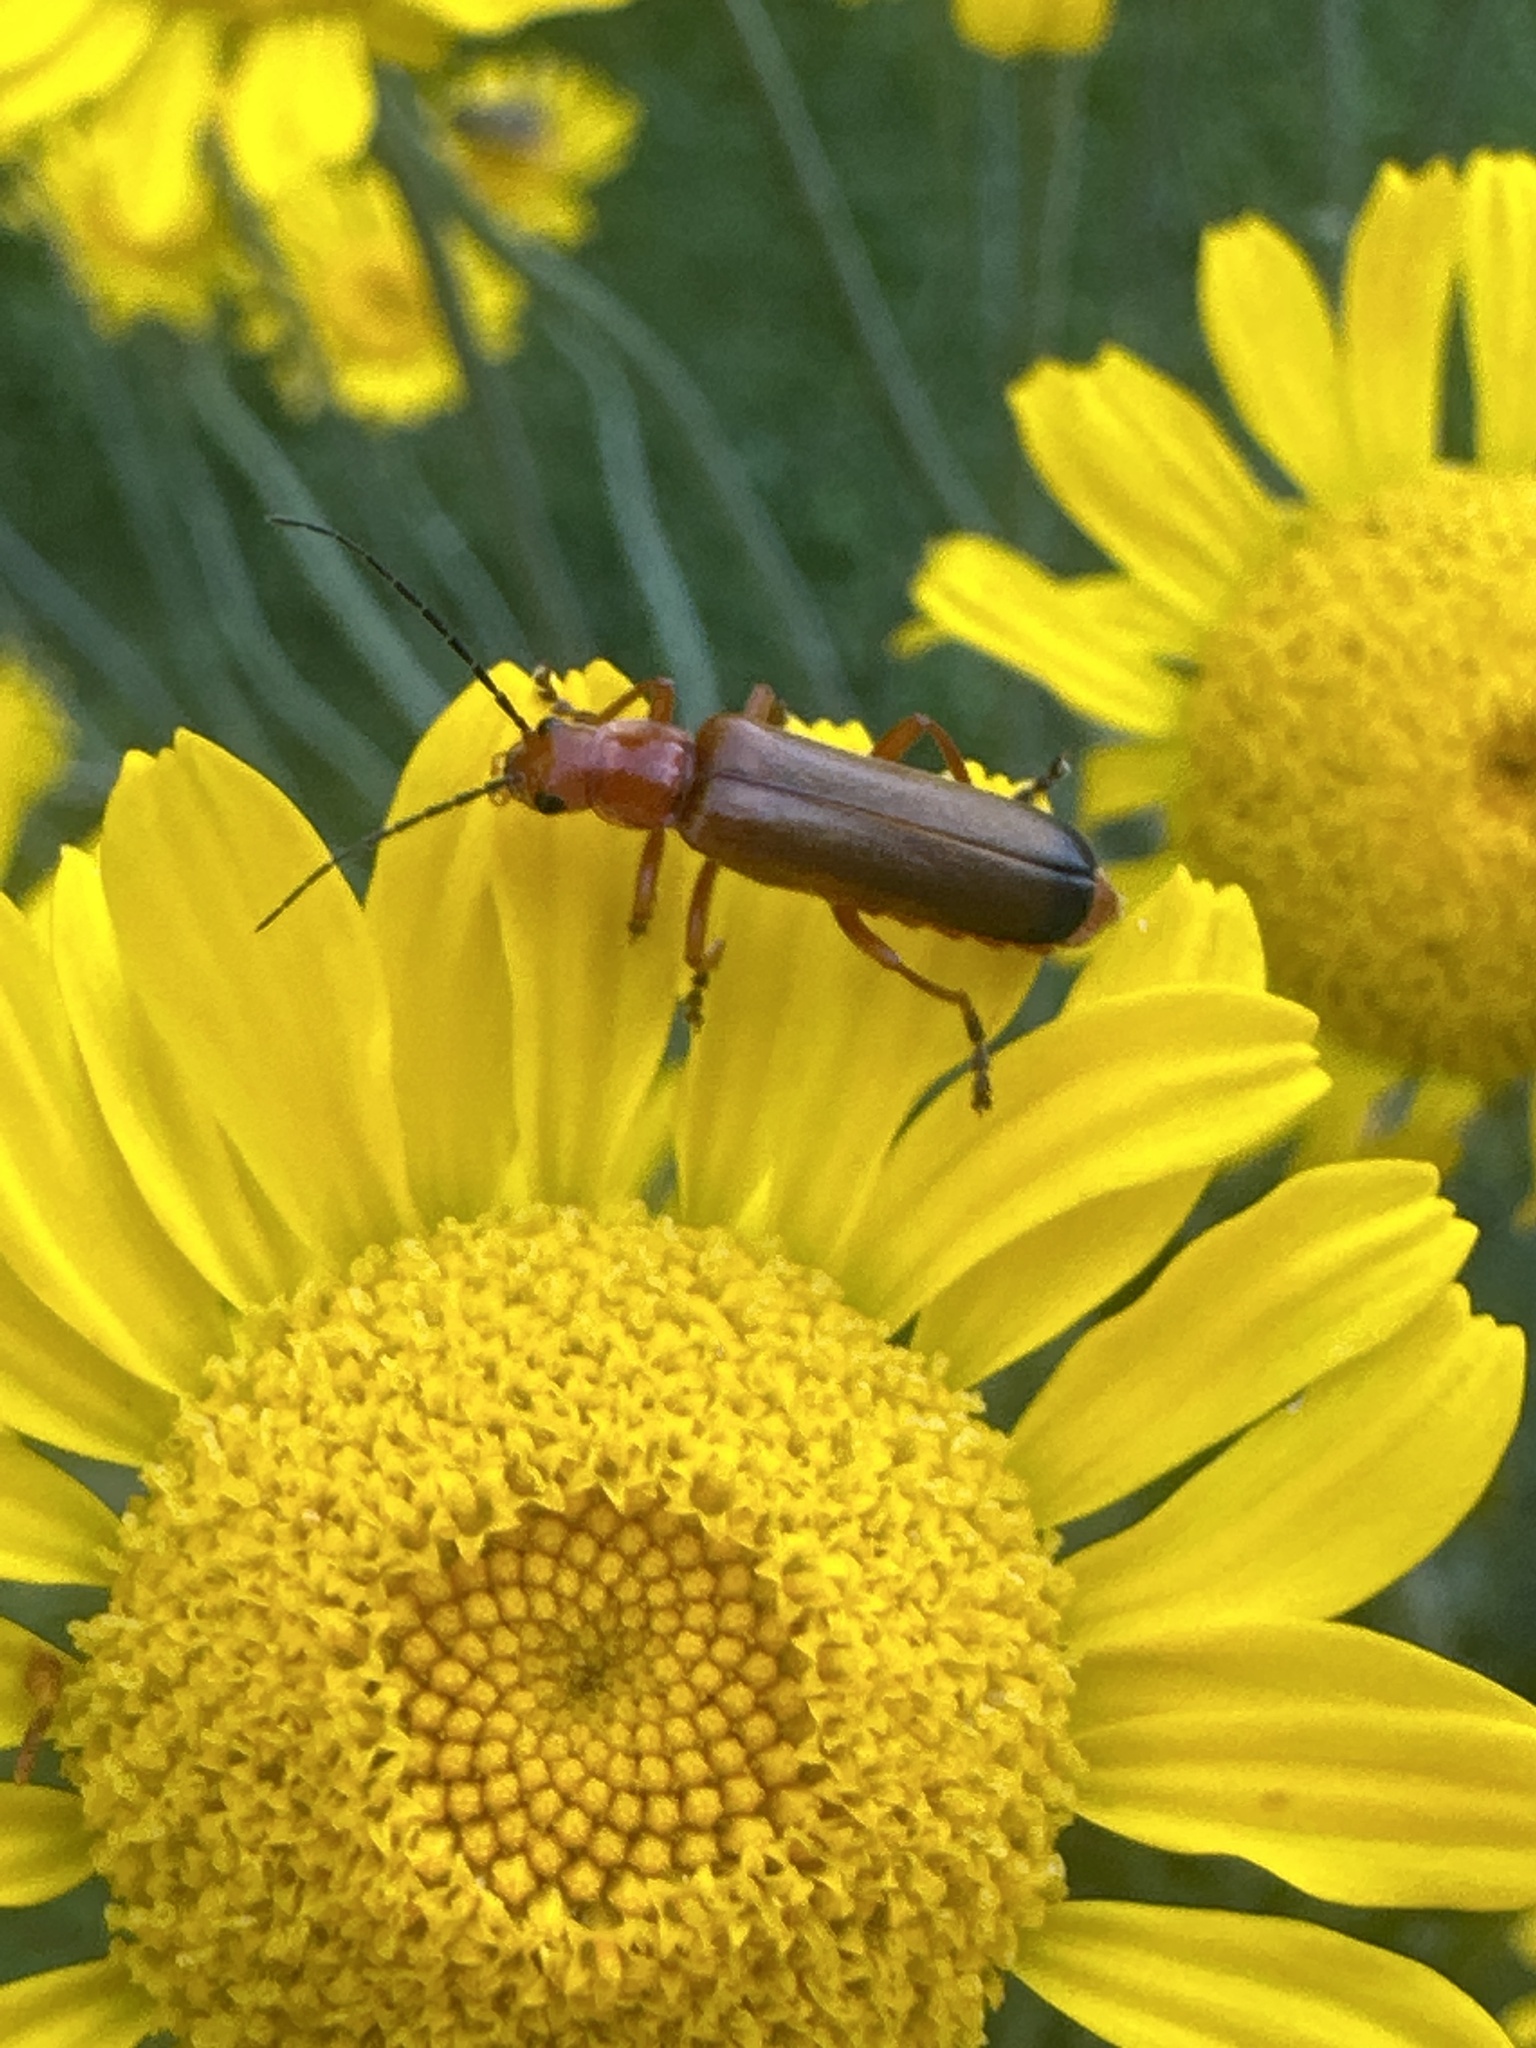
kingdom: Animalia
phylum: Arthropoda
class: Insecta
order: Coleoptera
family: Cantharidae
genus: Ancistronycha
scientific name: Ancistronycha erichsonii
